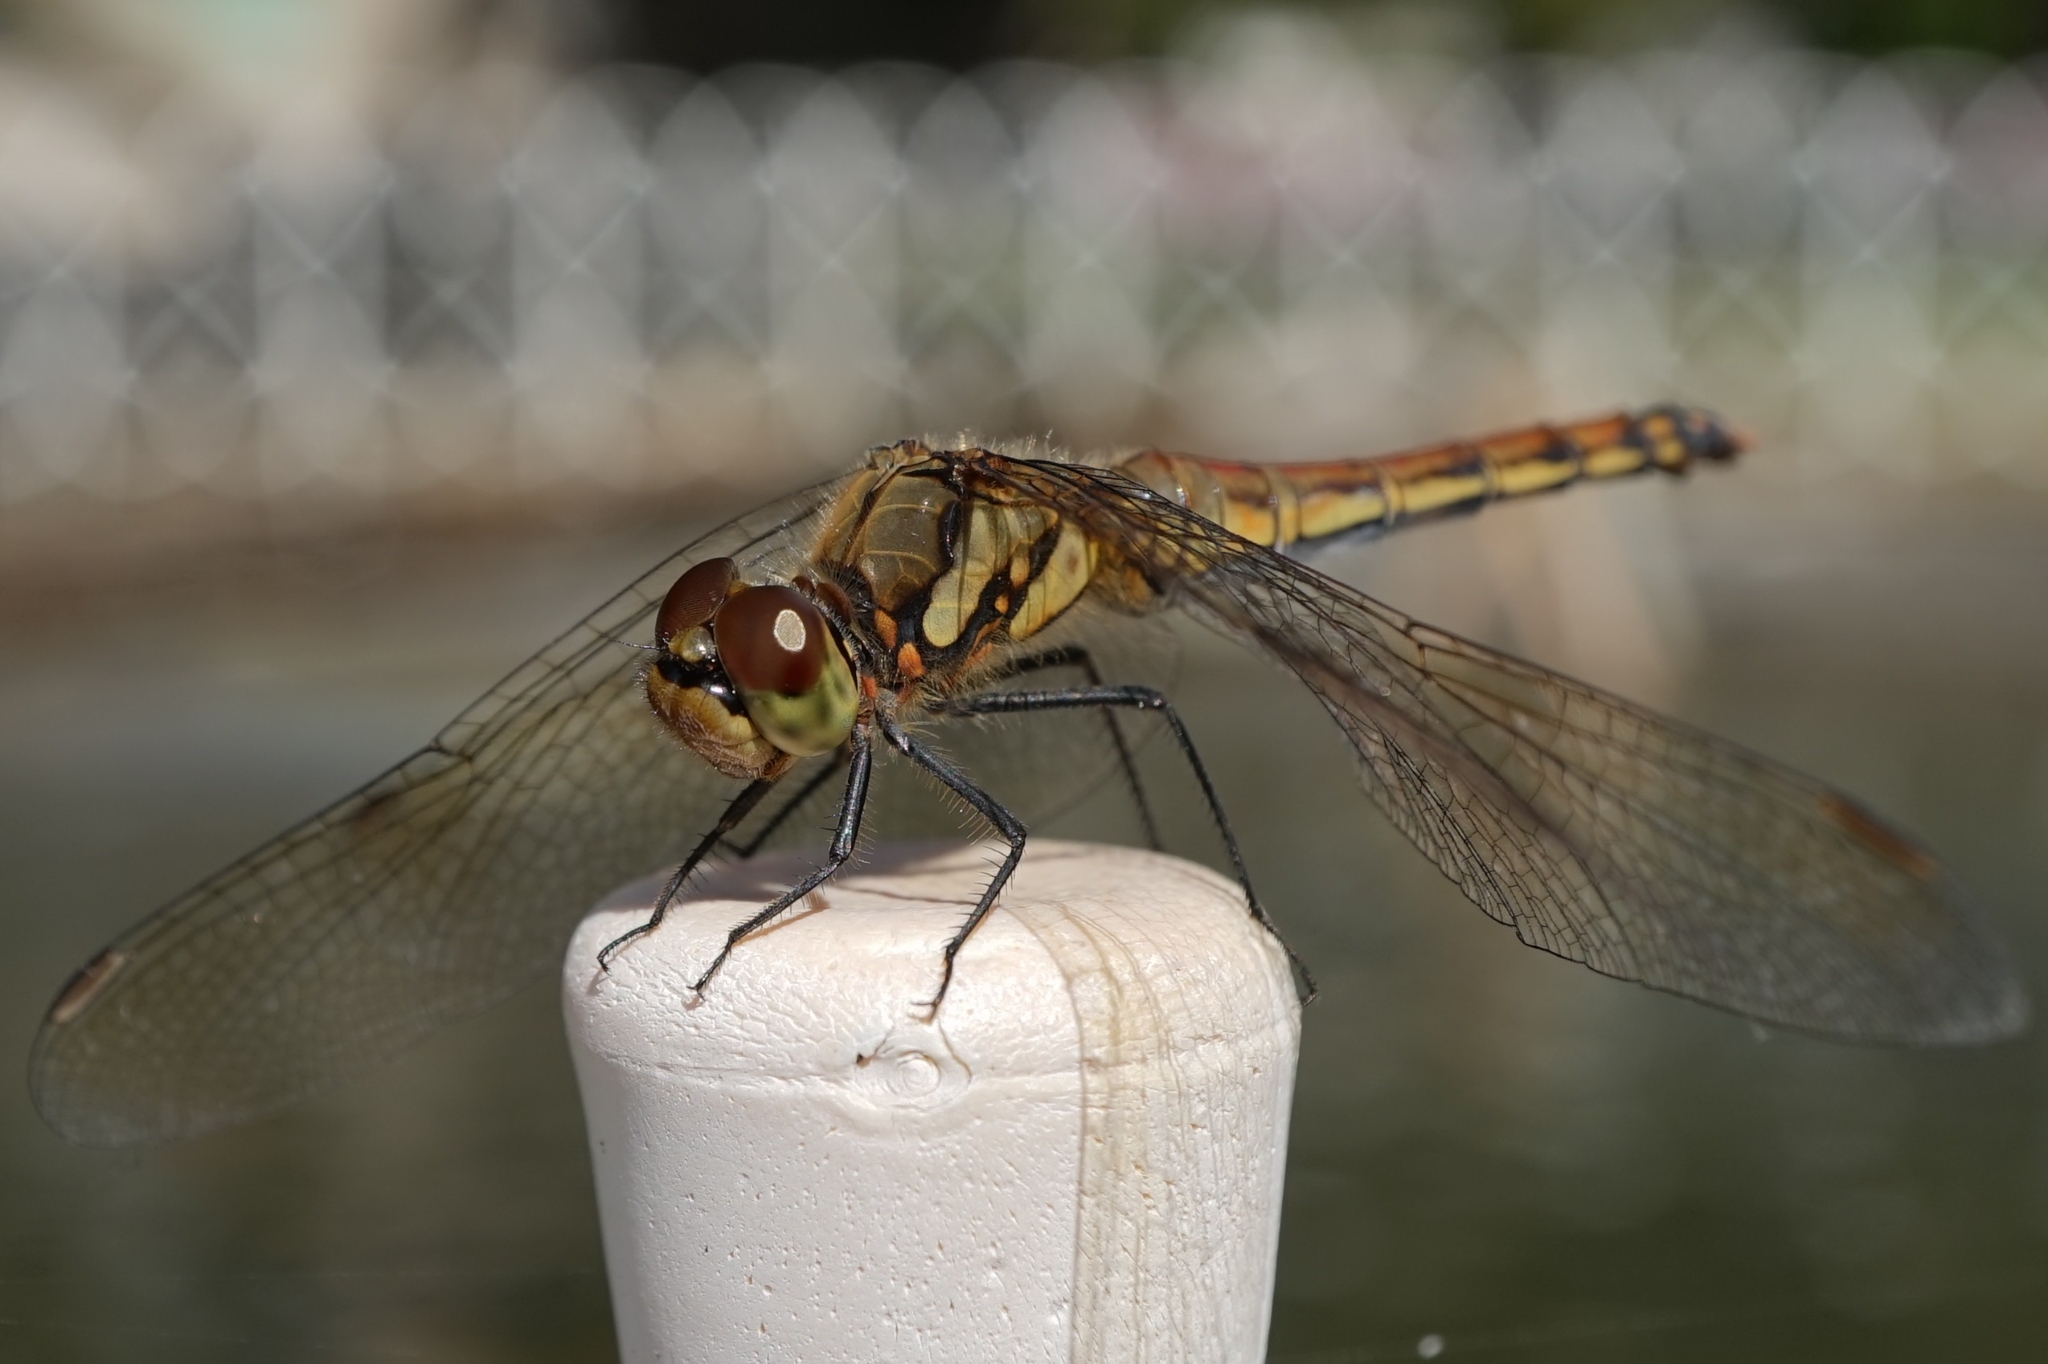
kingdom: Animalia
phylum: Arthropoda
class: Insecta
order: Odonata
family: Libellulidae
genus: Sympetrum
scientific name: Sympetrum frequens
